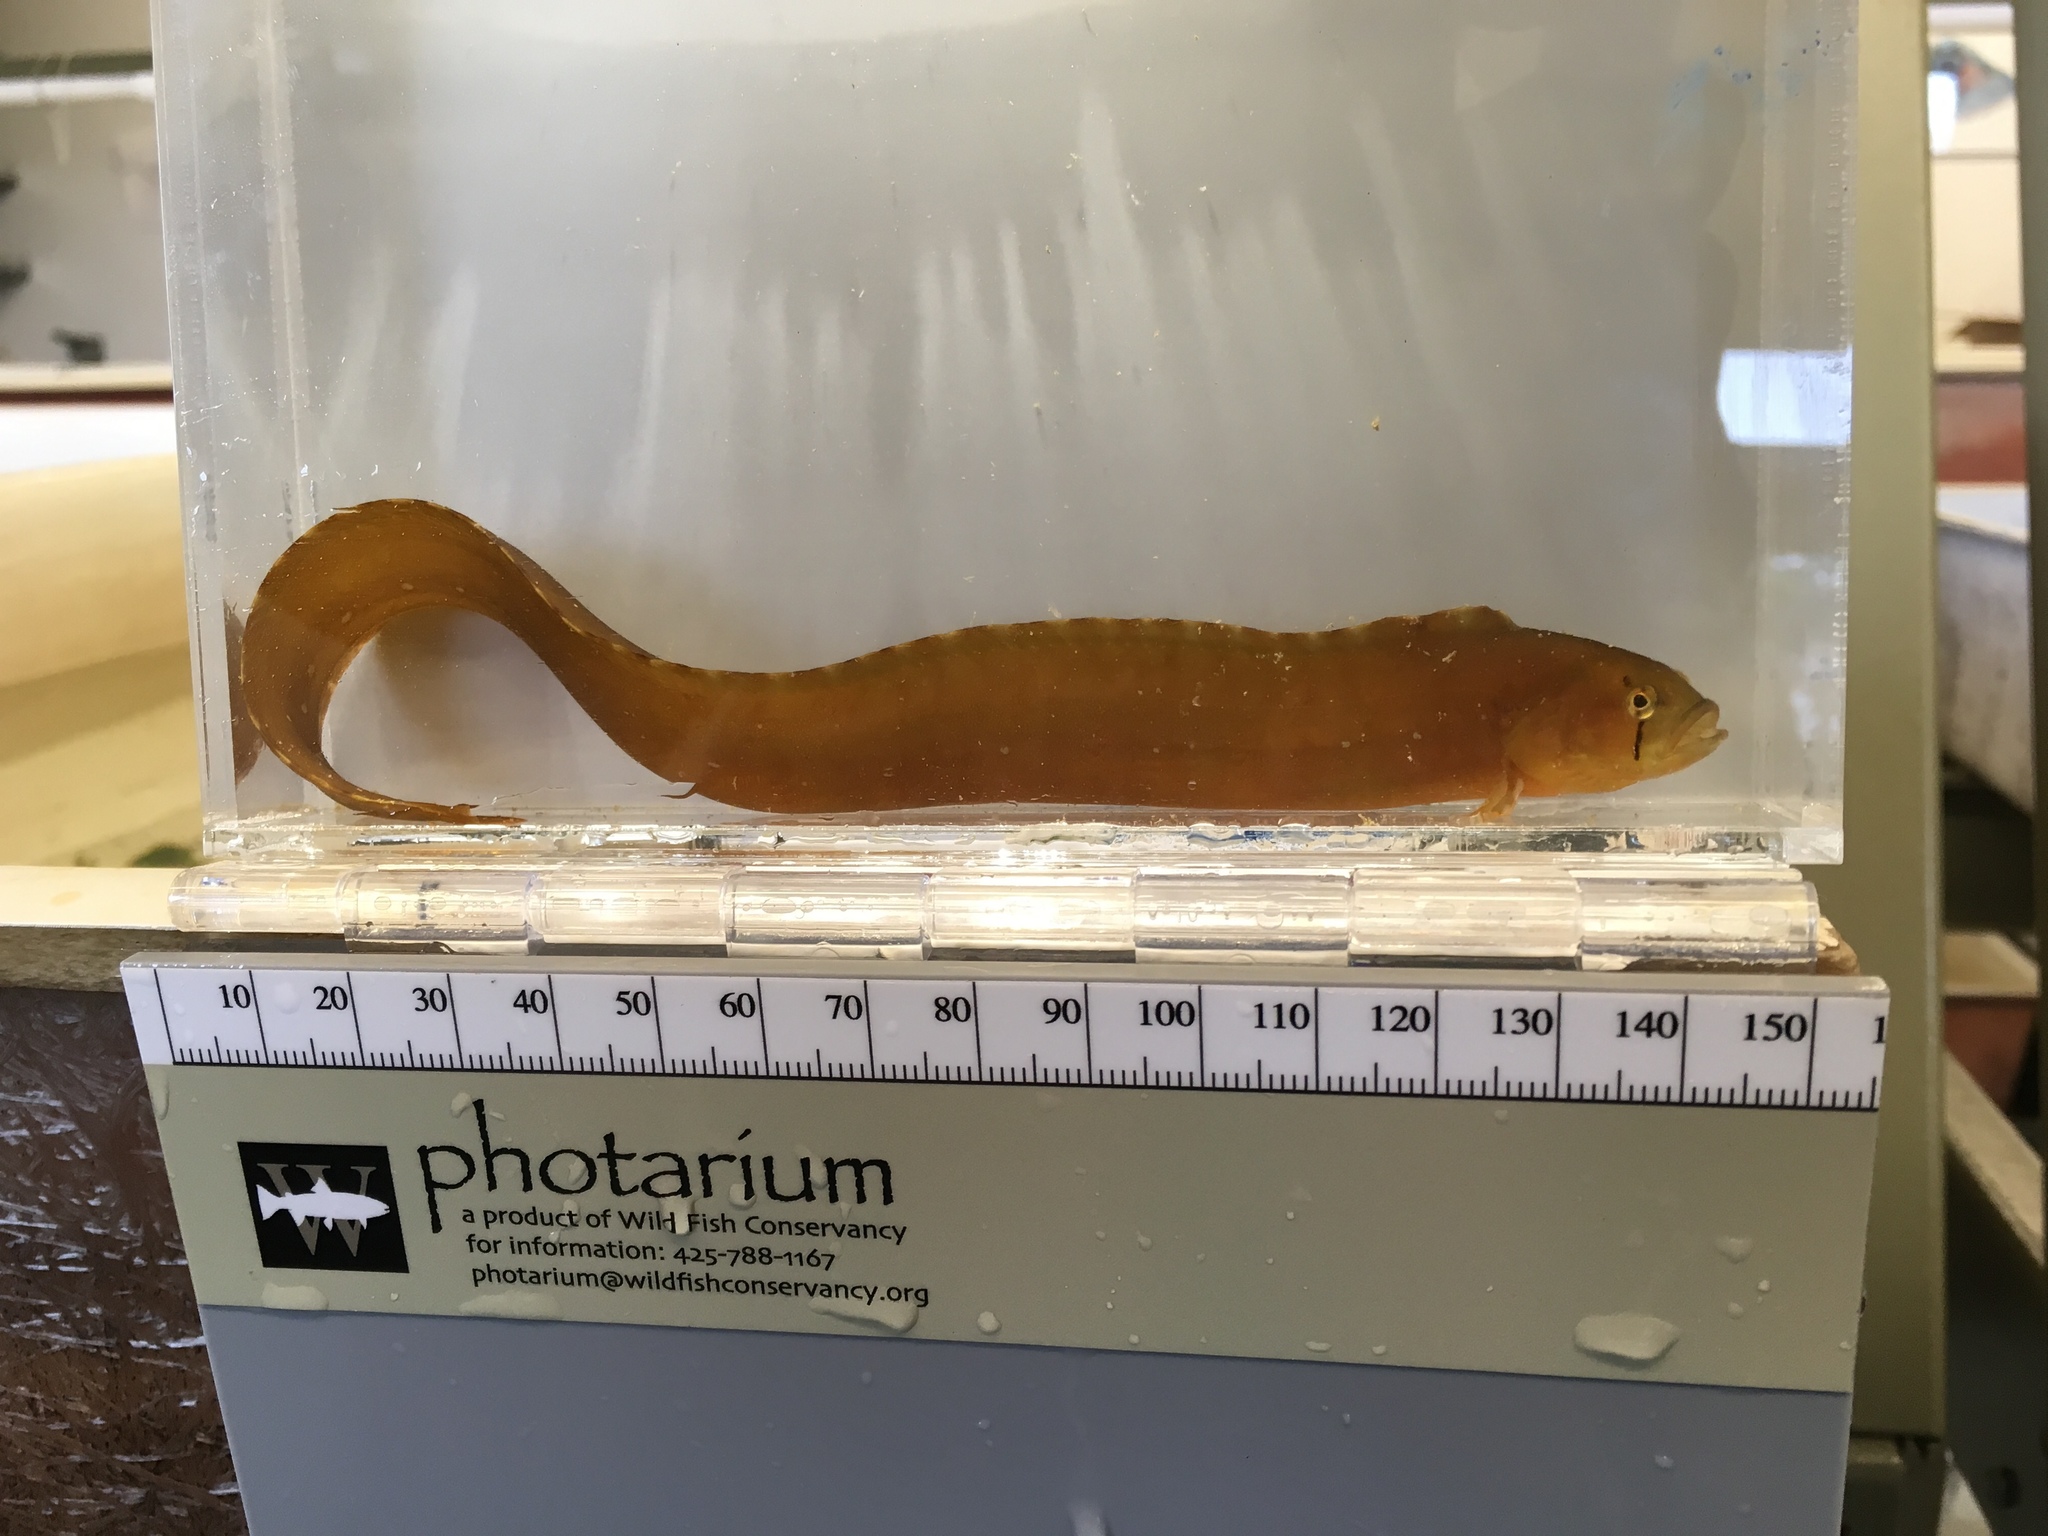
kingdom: Animalia
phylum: Chordata
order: Perciformes
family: Pholidae
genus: Apodichthys
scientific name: Apodichthys flavidus
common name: Penpoint gunnel
